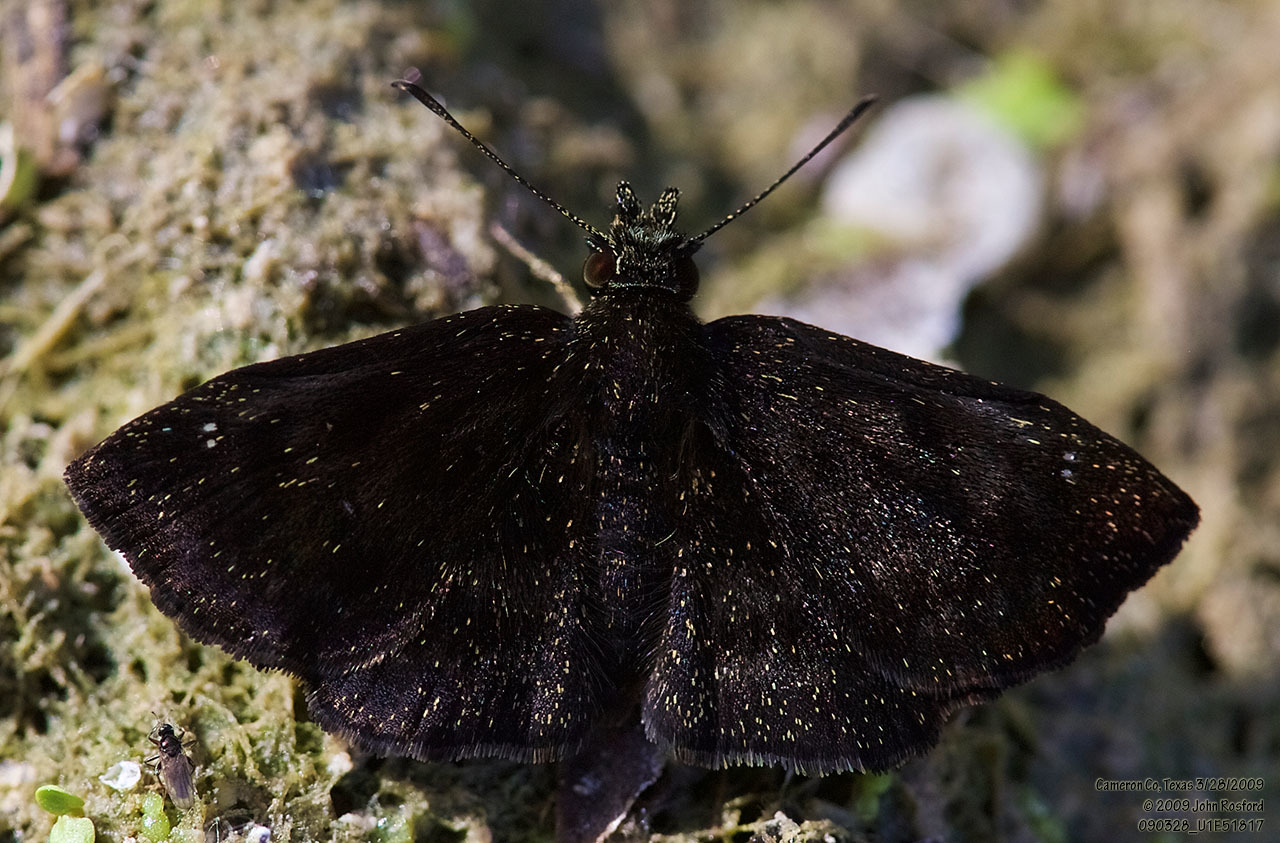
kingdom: Animalia
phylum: Arthropoda
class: Insecta
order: Lepidoptera
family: Hesperiidae
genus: Staphylus
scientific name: Staphylus mazans
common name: Mazans scallopwing
